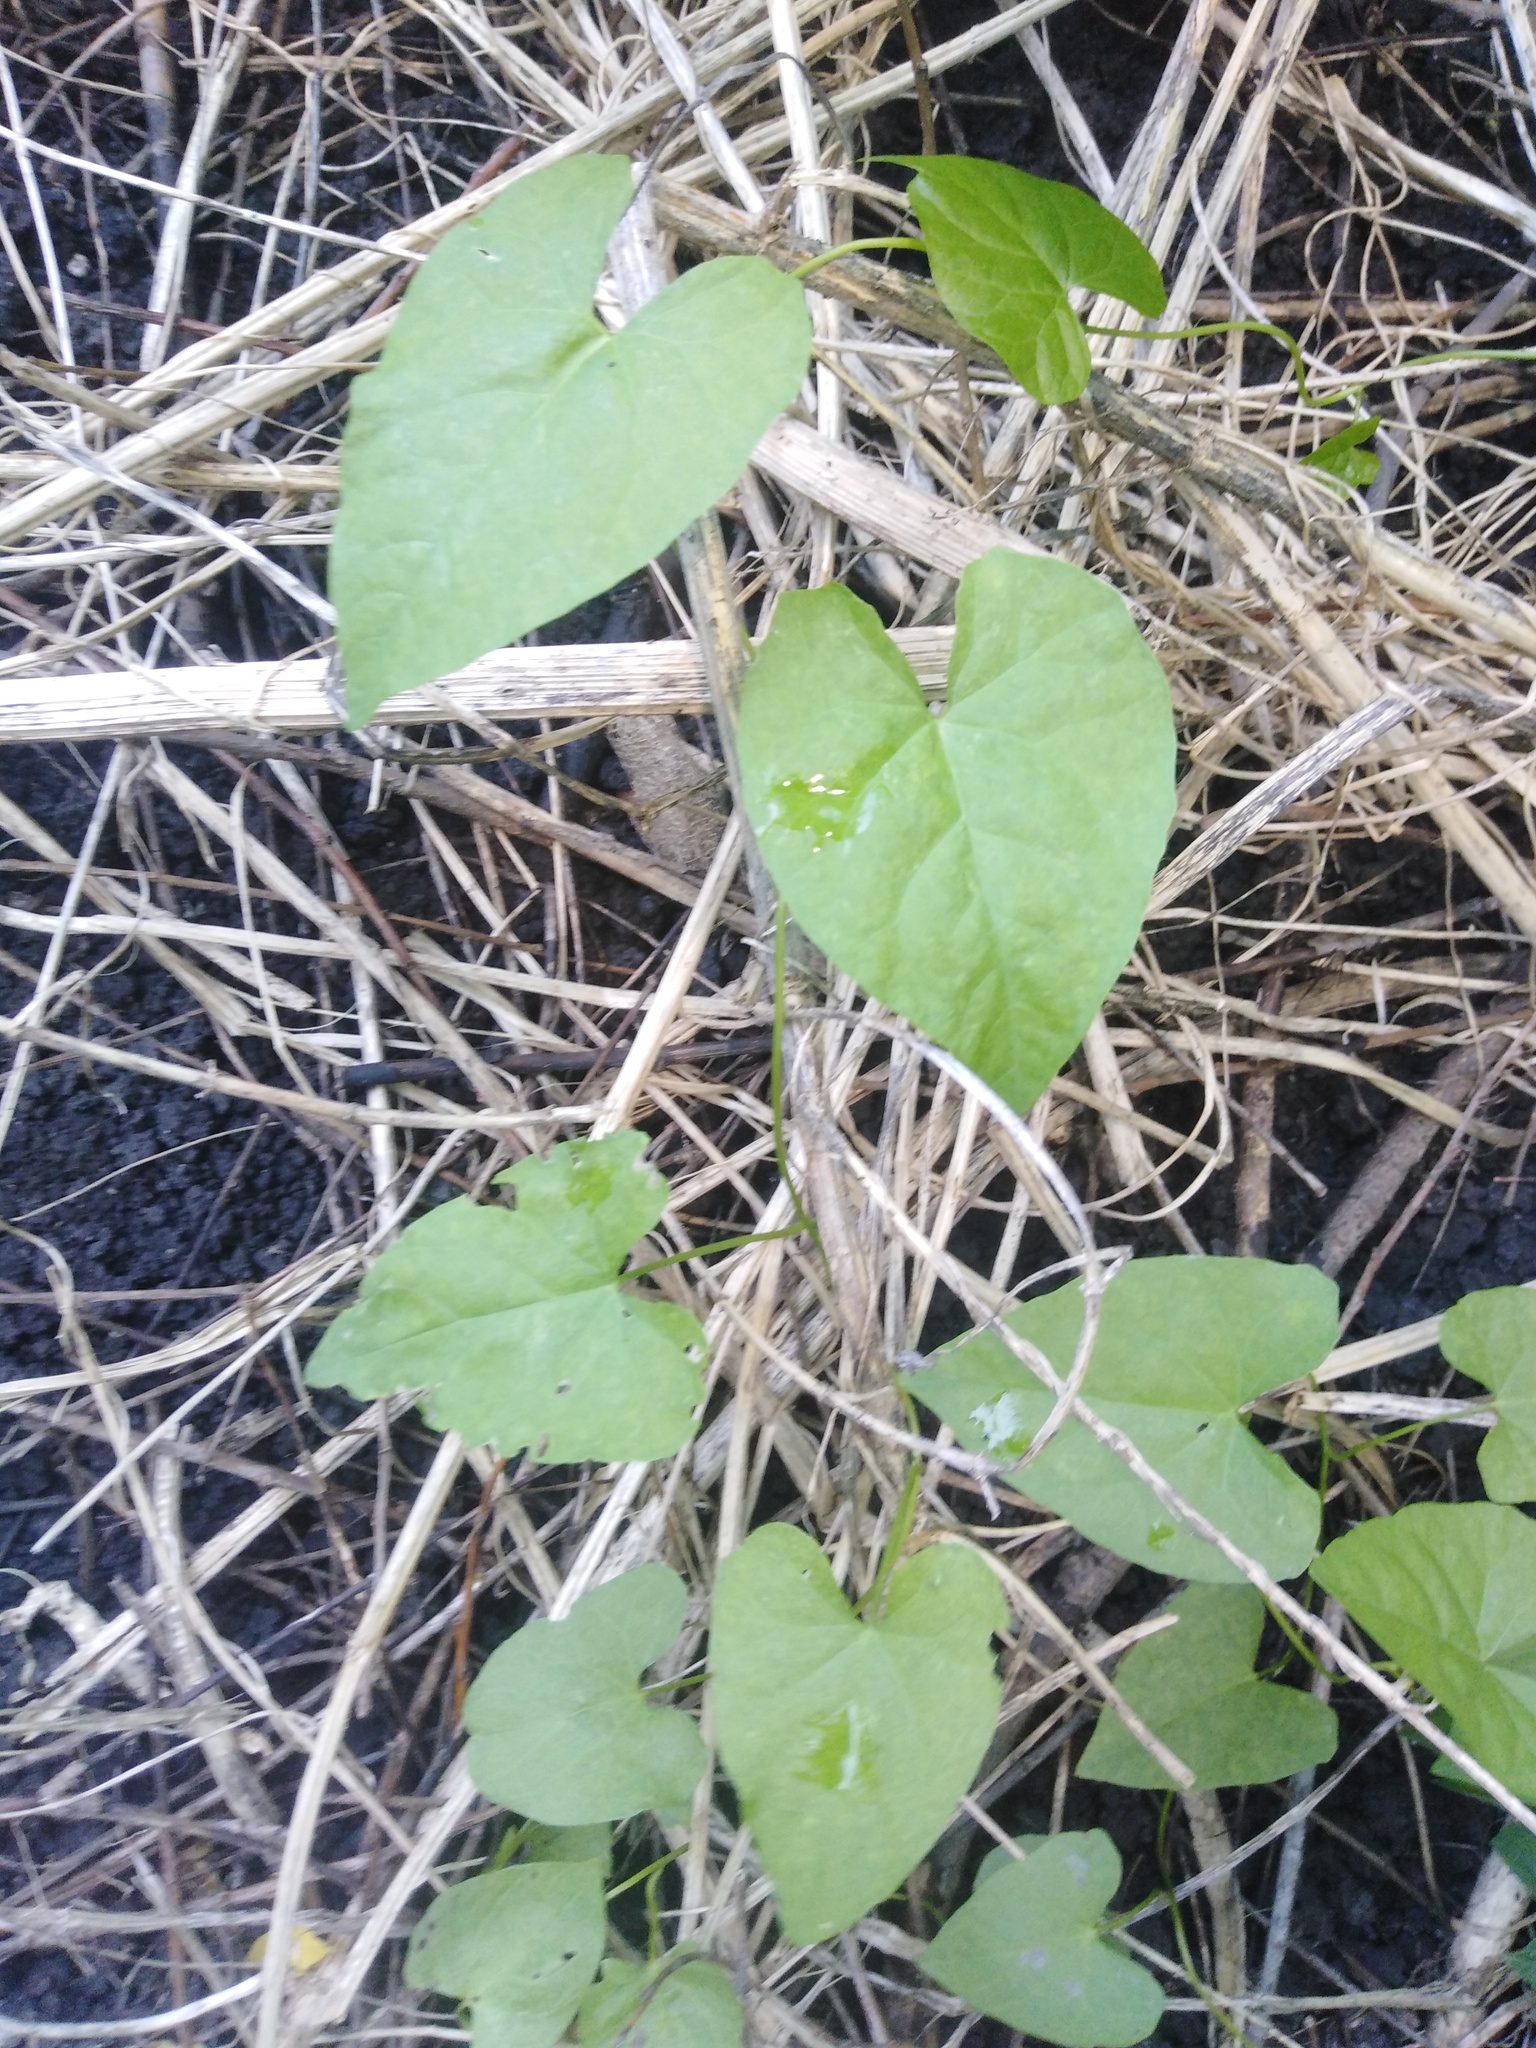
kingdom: Plantae
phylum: Tracheophyta
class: Magnoliopsida
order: Solanales
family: Convolvulaceae
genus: Calystegia
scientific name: Calystegia sepium
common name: Hedge bindweed
